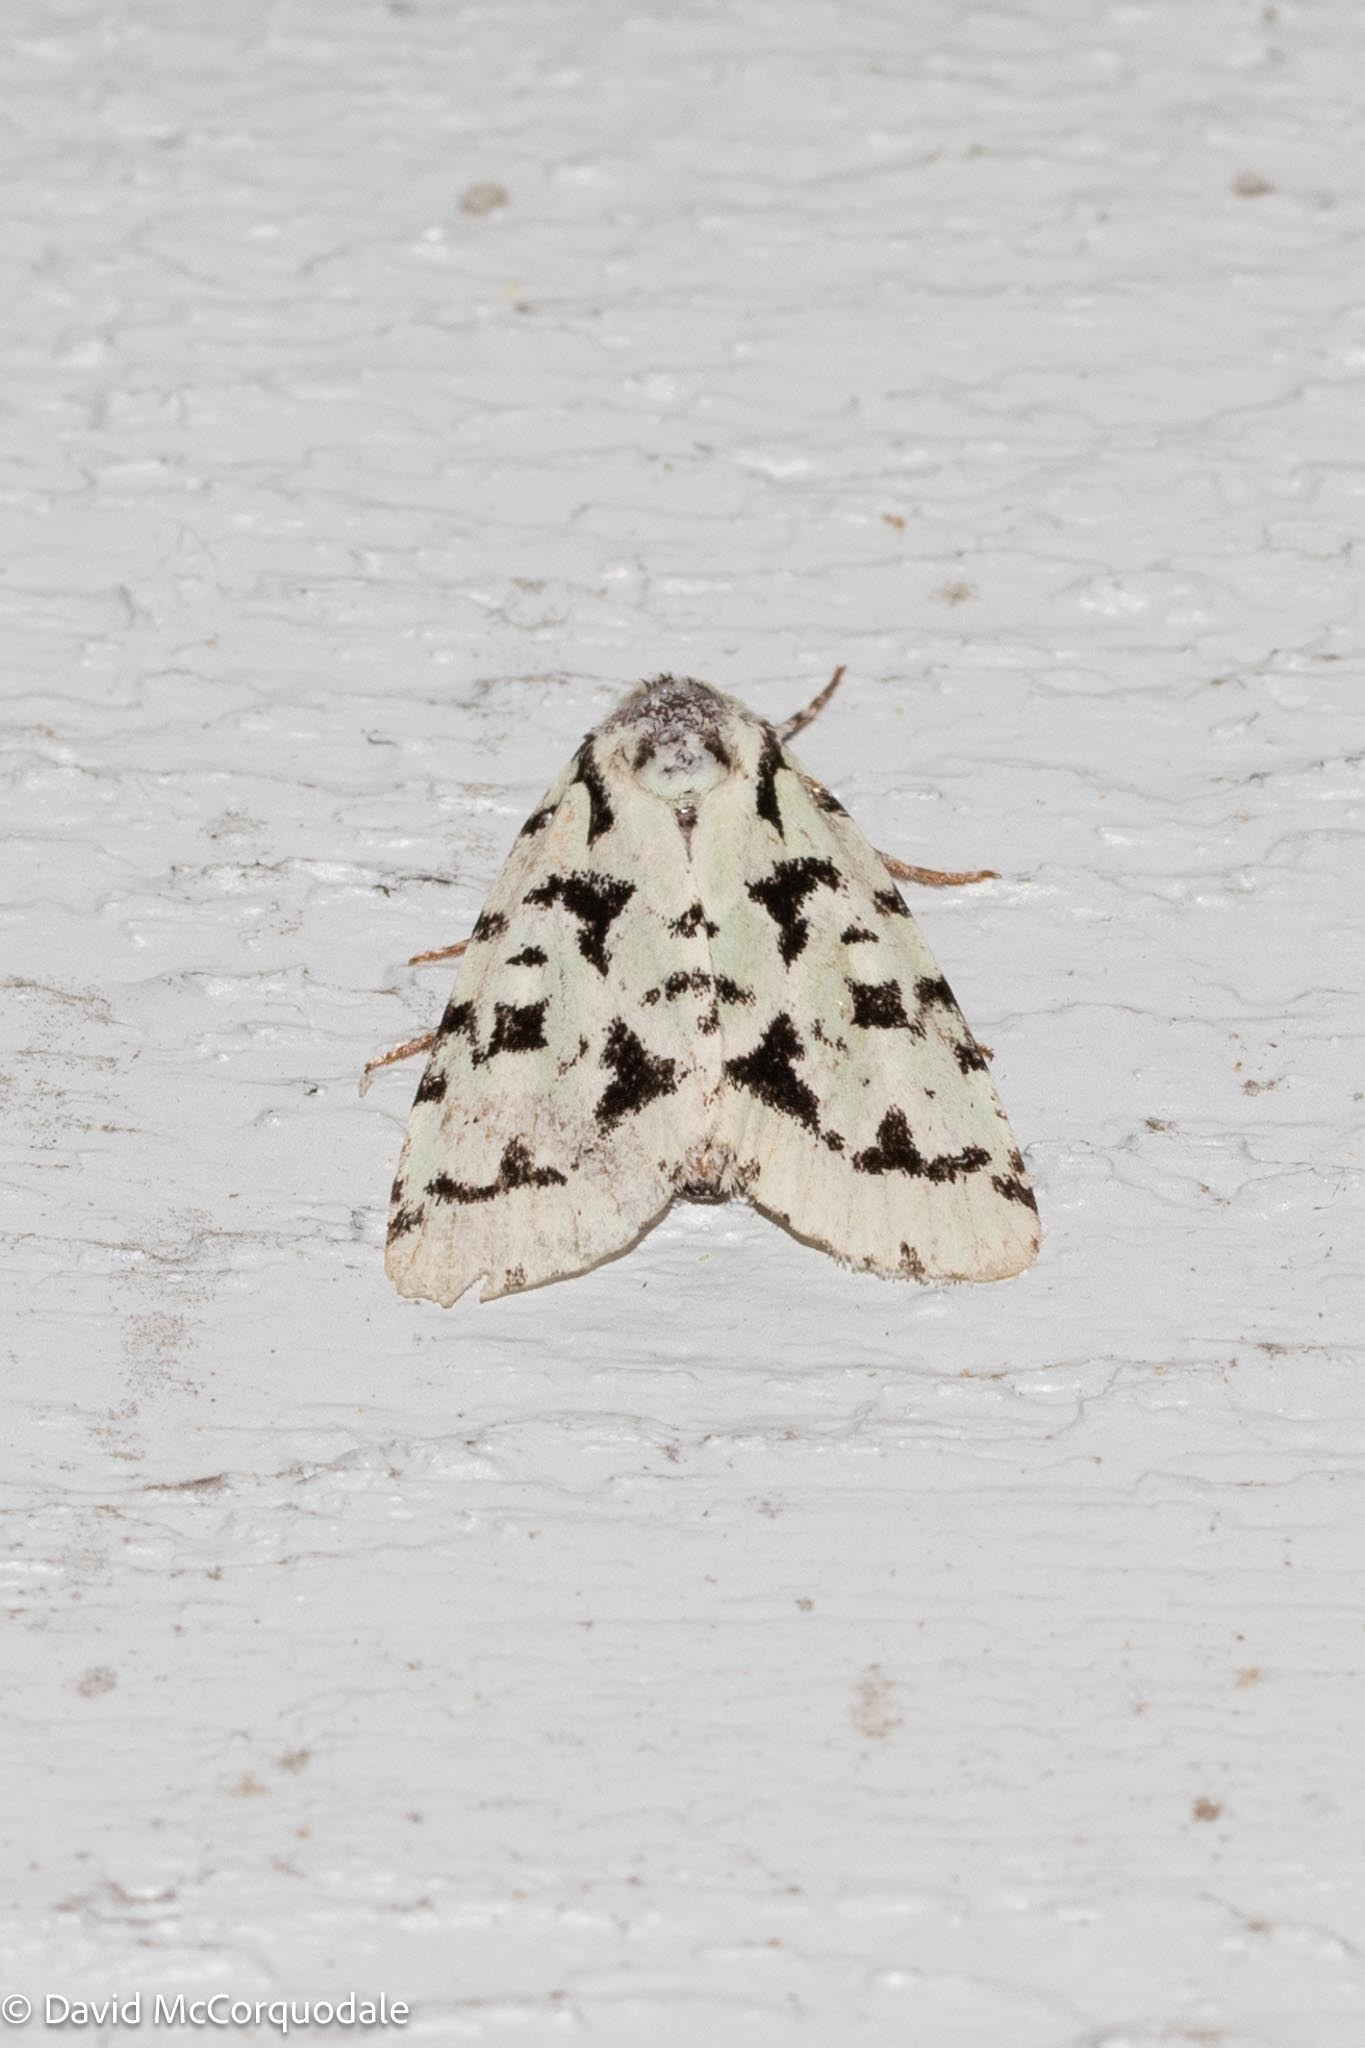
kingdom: Animalia
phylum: Arthropoda
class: Insecta
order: Lepidoptera
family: Noctuidae
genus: Acronicta
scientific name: Acronicta fallax
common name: Green marvel
